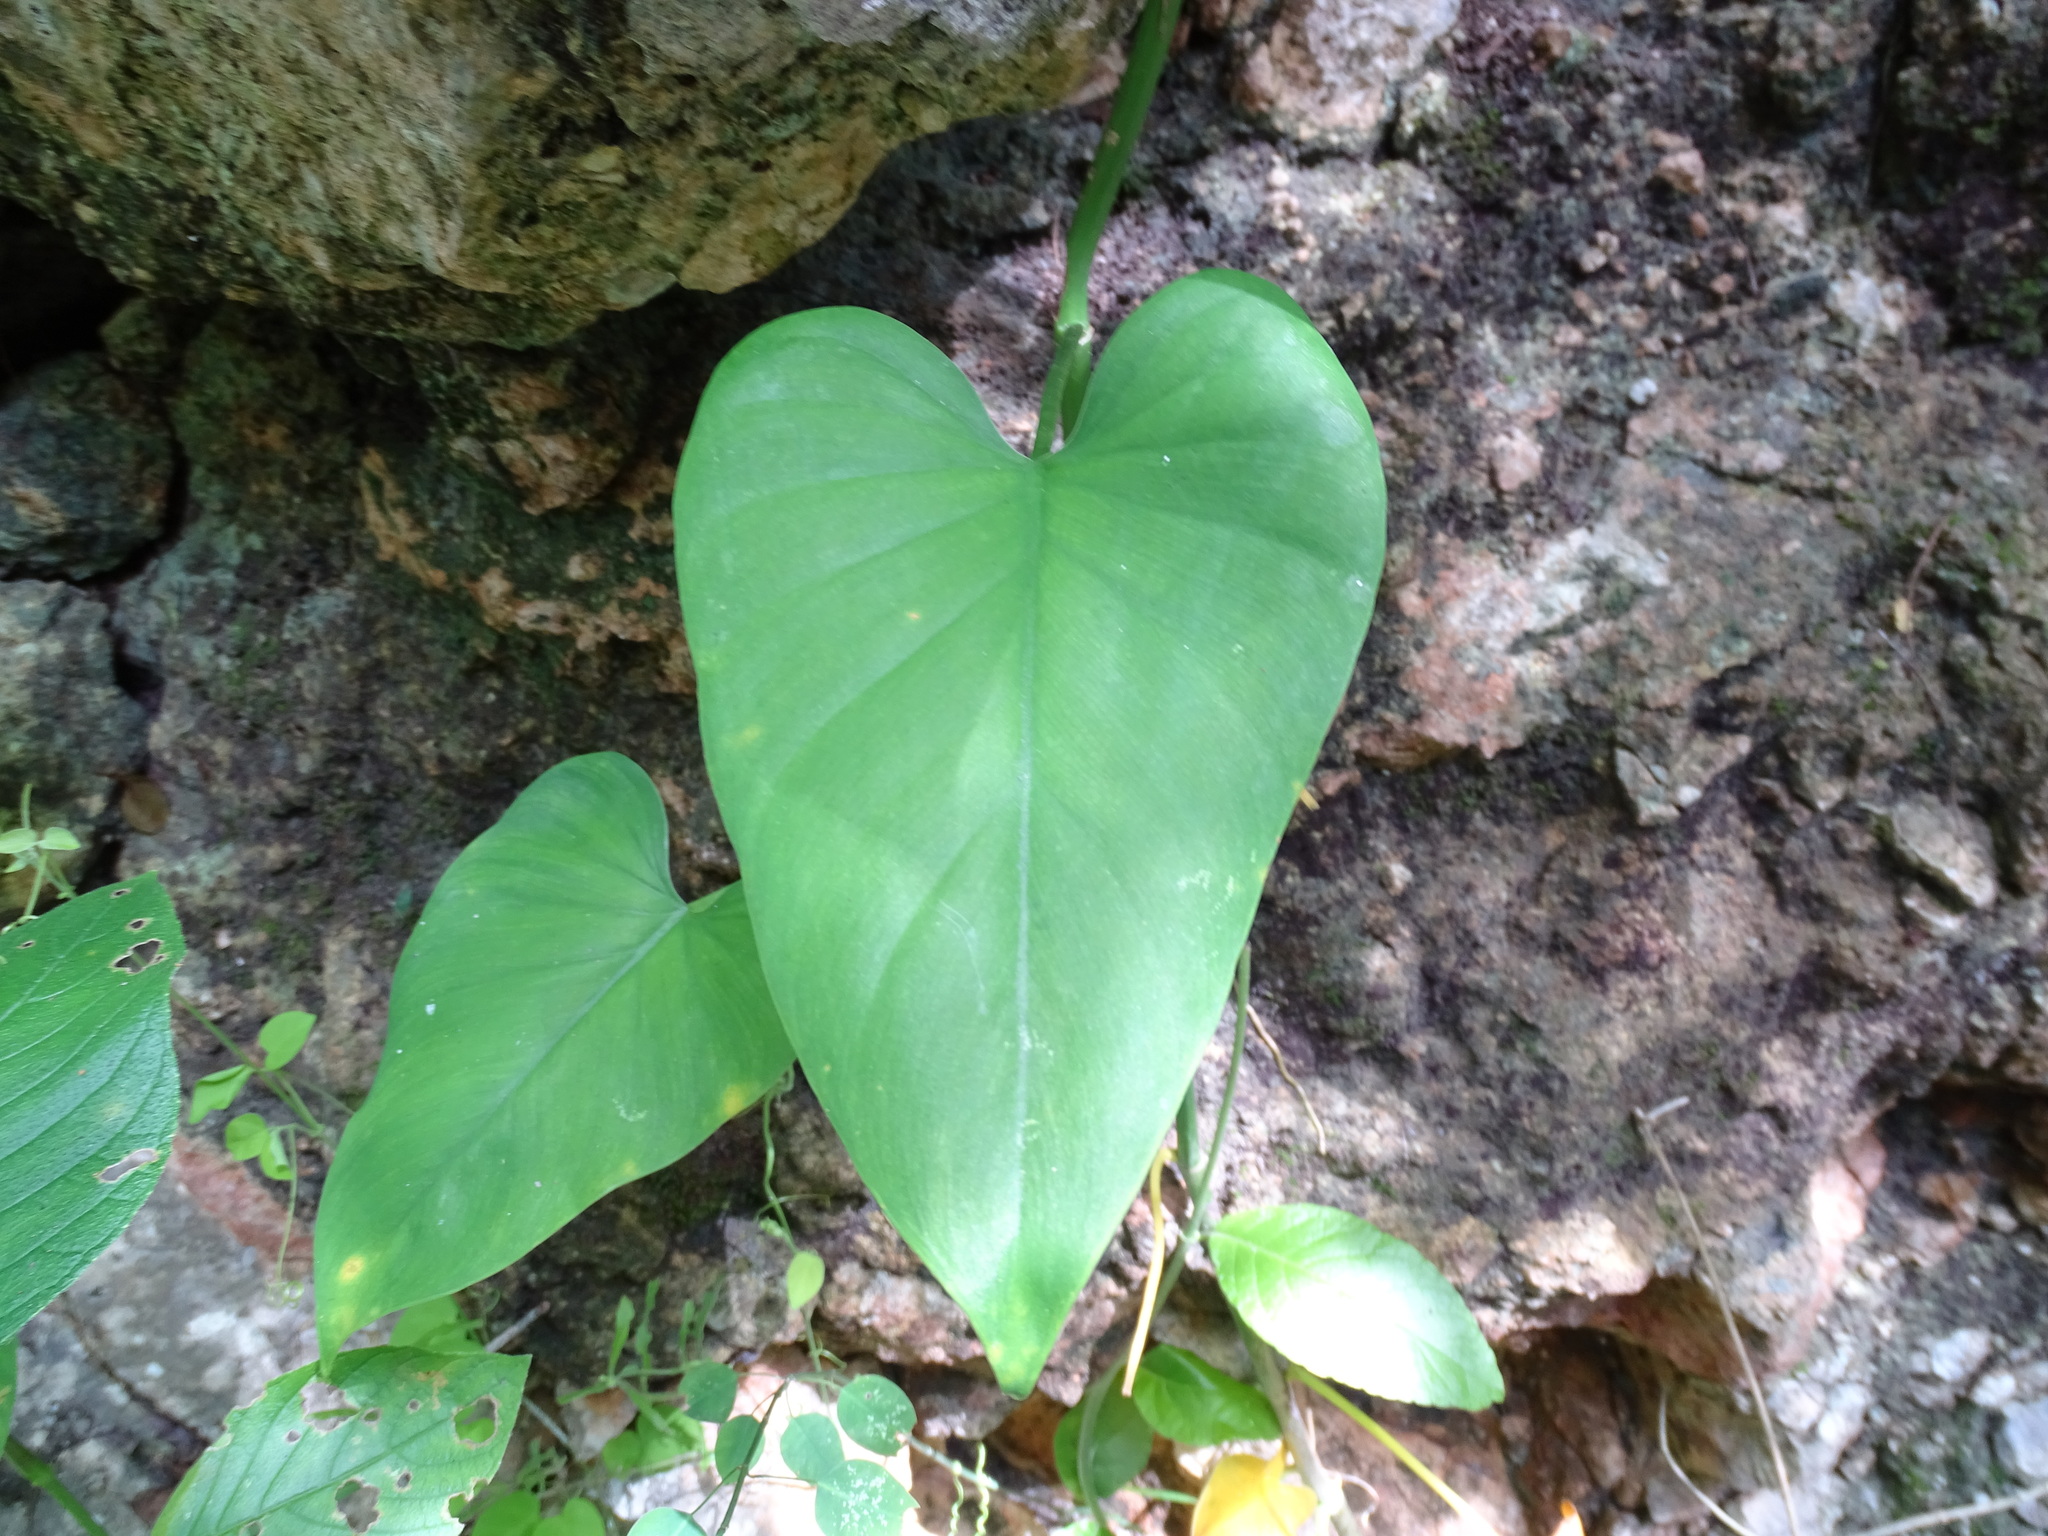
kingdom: Plantae
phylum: Tracheophyta
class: Liliopsida
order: Alismatales
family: Araceae
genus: Philodendron
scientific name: Philodendron jacquinii
